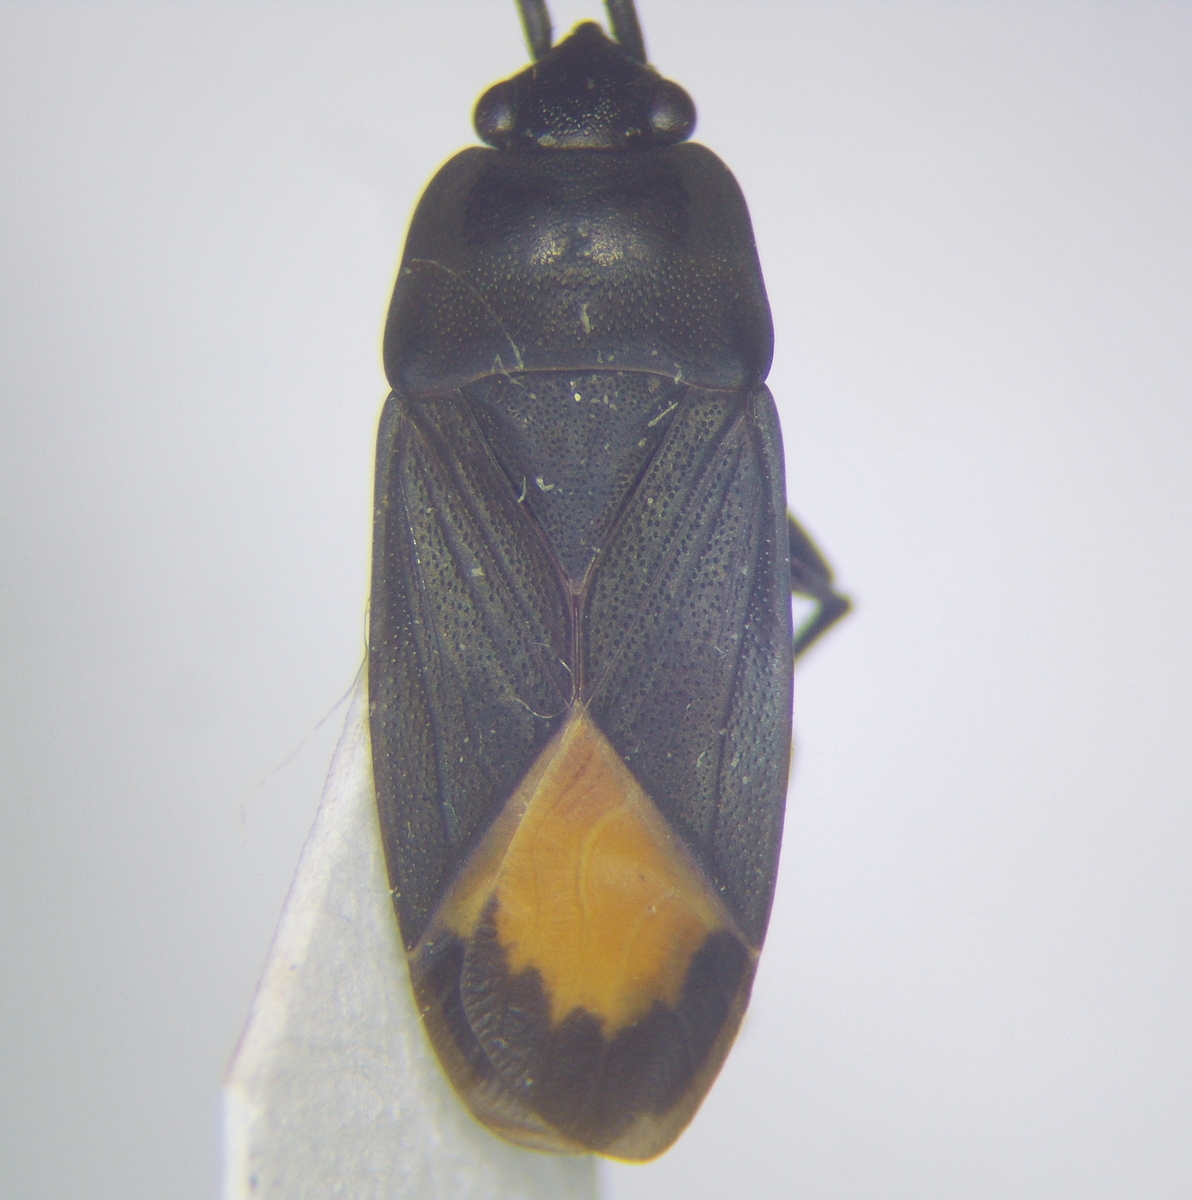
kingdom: Animalia
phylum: Arthropoda
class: Insecta
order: Hemiptera
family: Rhyparochromidae
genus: Aphanus
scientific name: Aphanus rolandri
